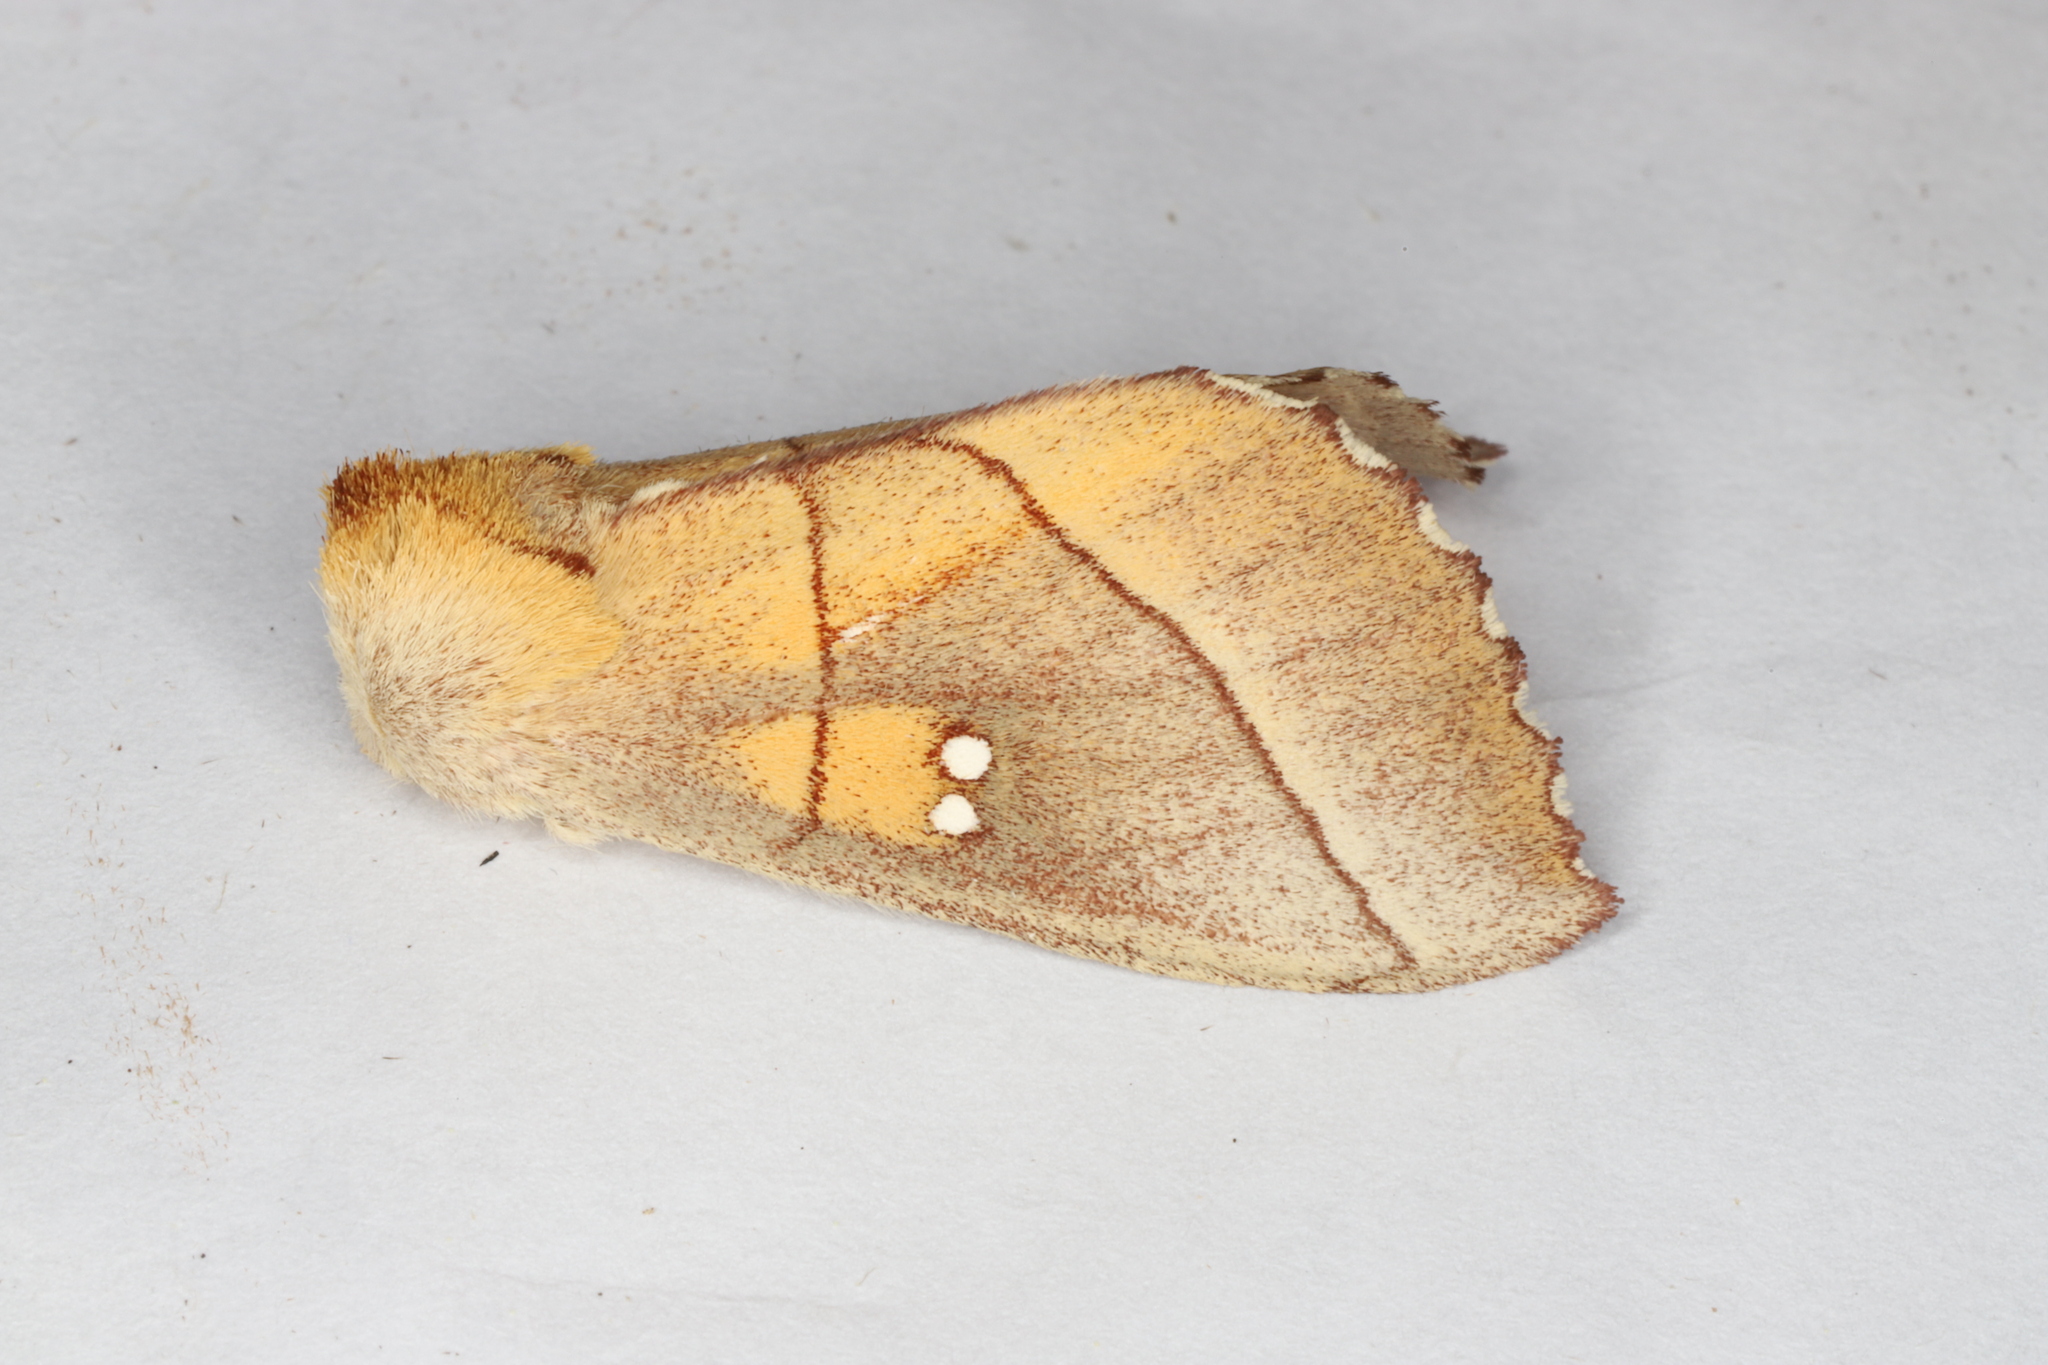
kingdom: Animalia
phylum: Arthropoda
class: Insecta
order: Lepidoptera
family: Notodontidae
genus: Nadata
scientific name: Nadata gibbosa
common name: White-dotted prominent
